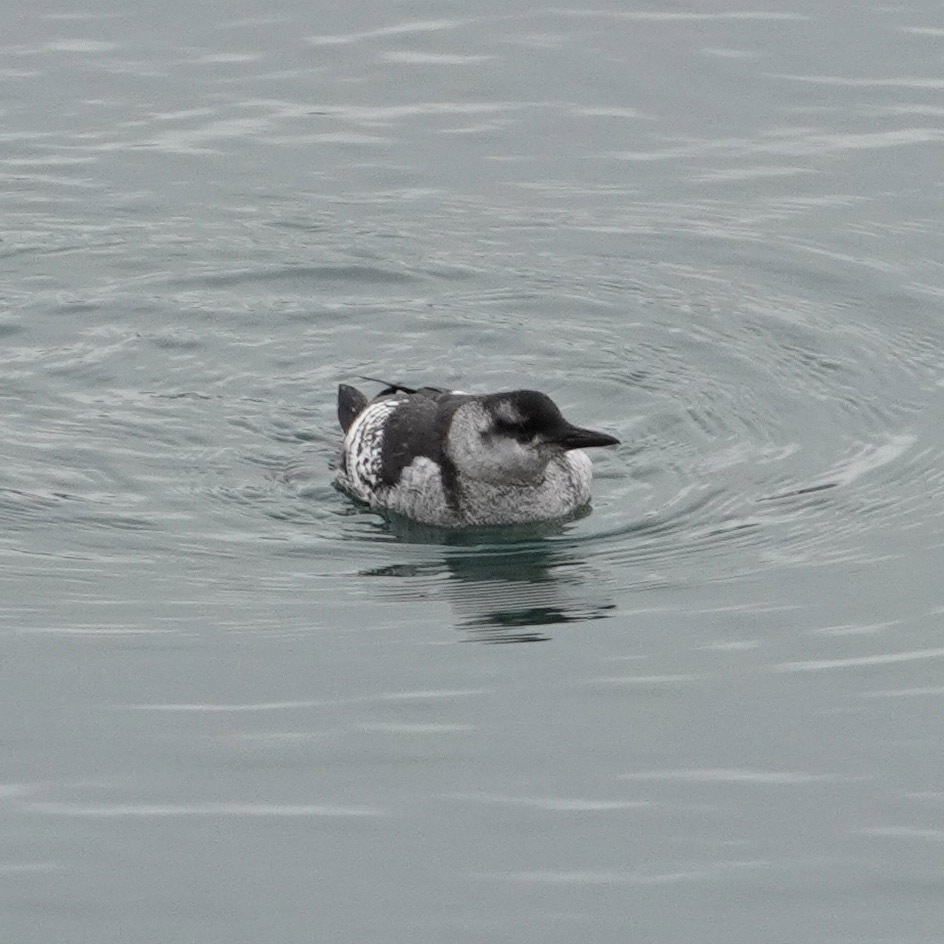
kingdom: Animalia
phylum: Chordata
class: Aves
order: Charadriiformes
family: Alcidae
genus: Cepphus
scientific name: Cepphus grylle
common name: Black guillemot
